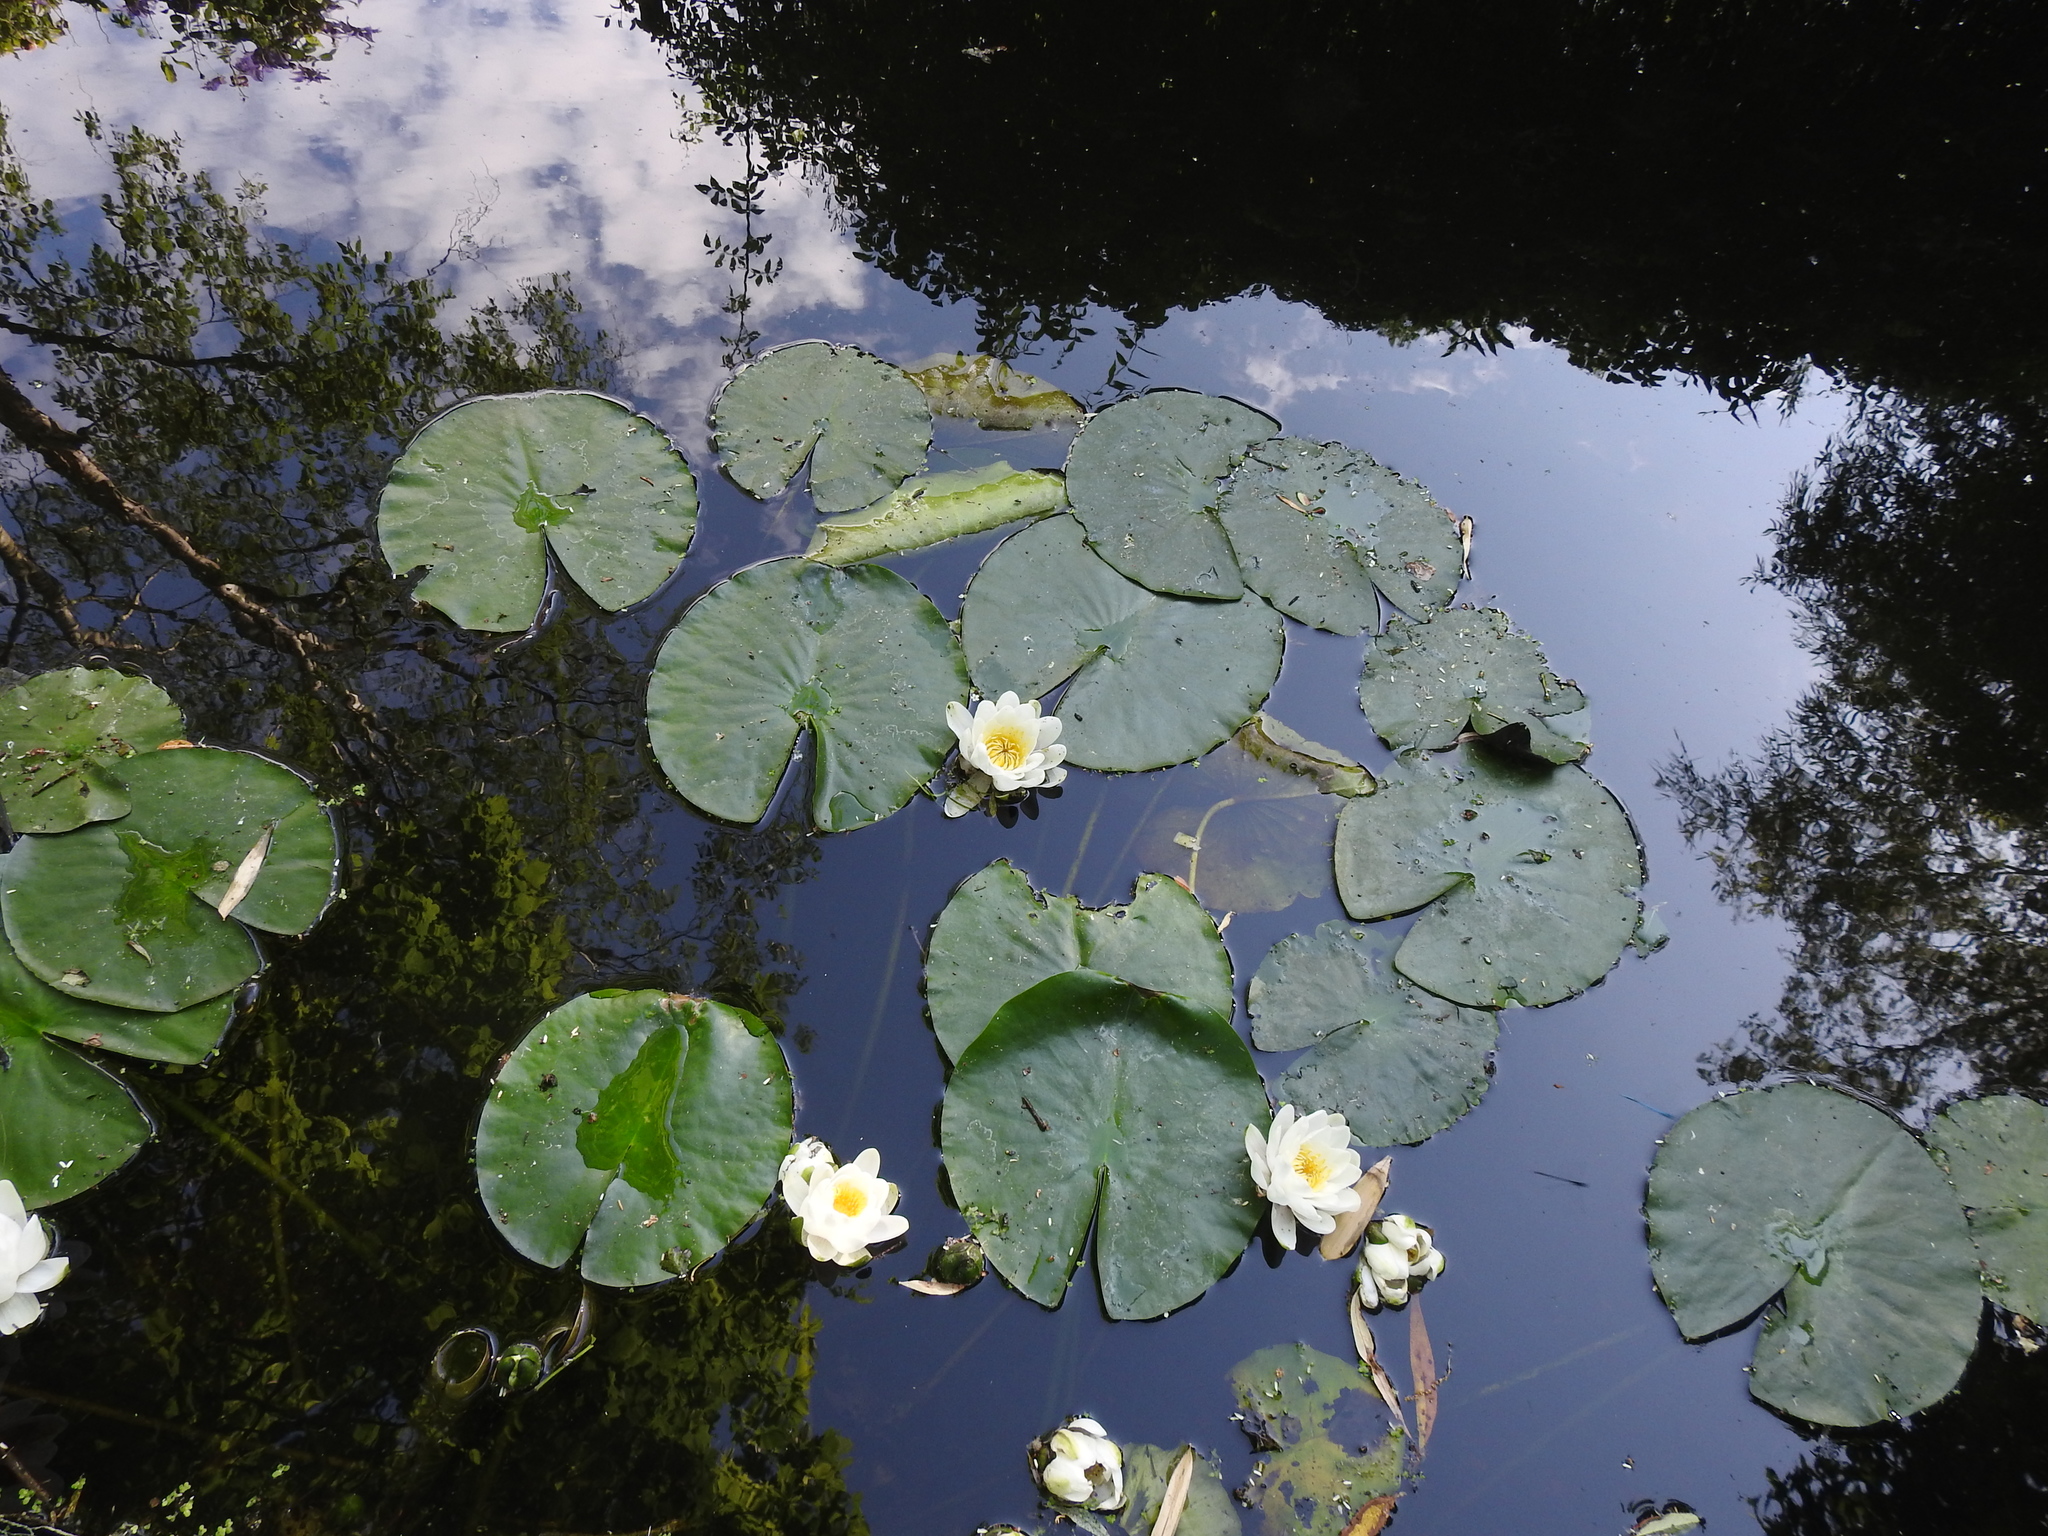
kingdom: Plantae
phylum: Tracheophyta
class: Magnoliopsida
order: Nymphaeales
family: Nymphaeaceae
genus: Nymphaea
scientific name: Nymphaea alba
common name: White water-lily
